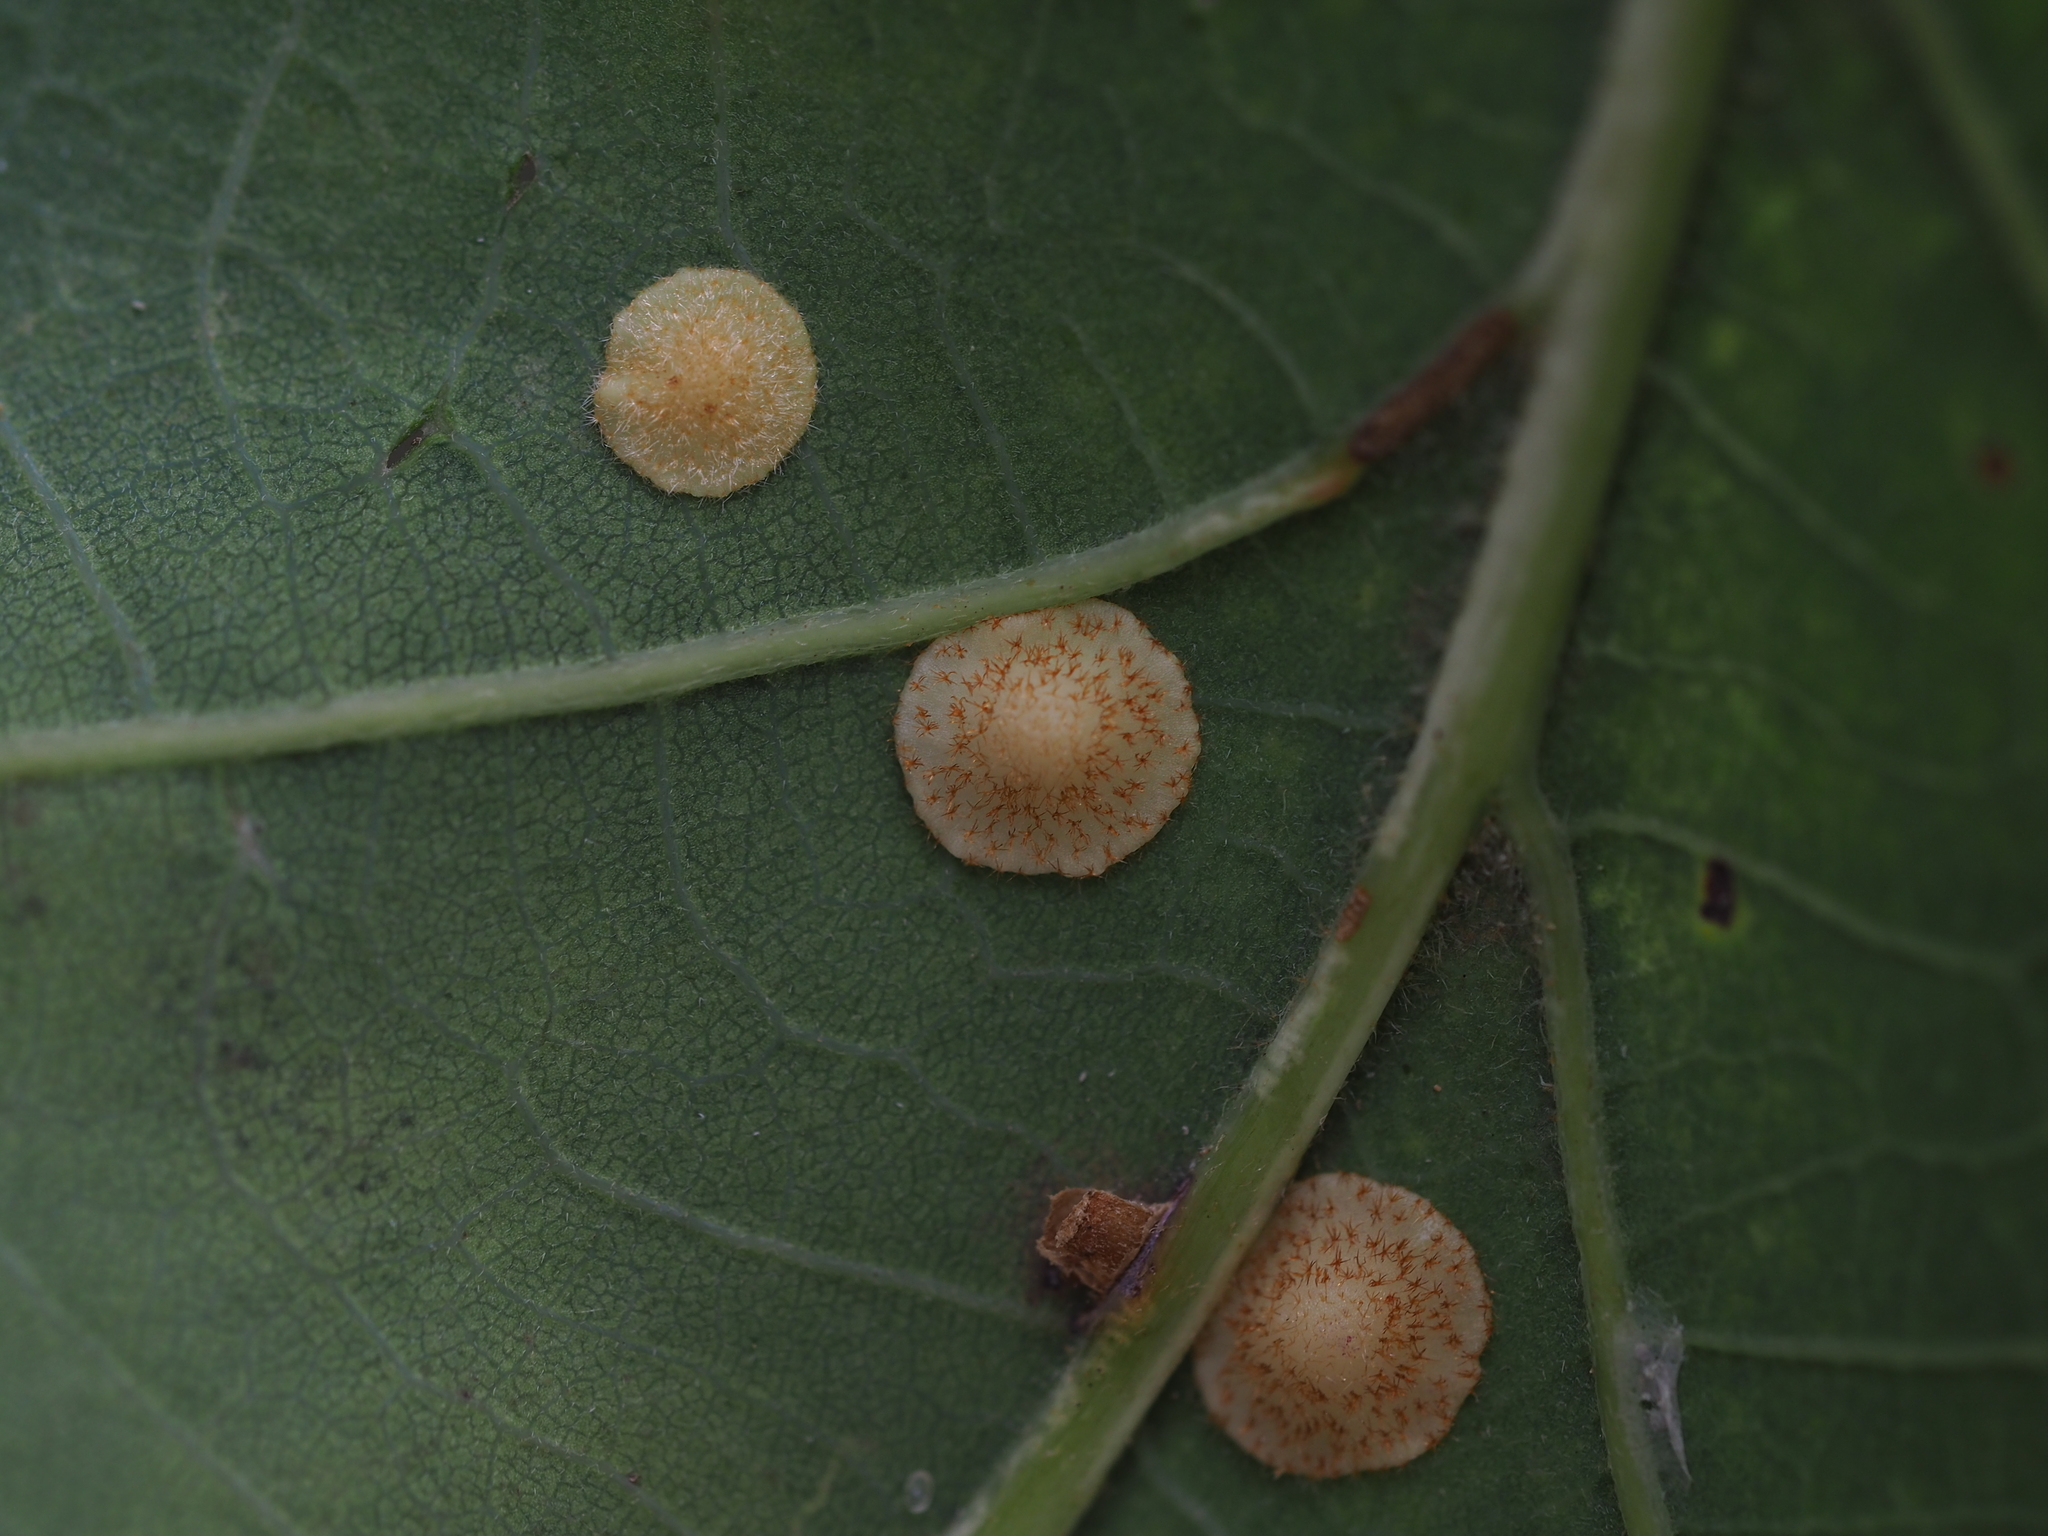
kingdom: Animalia
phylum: Arthropoda
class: Insecta
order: Hymenoptera
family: Cynipidae
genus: Neuroterus
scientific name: Neuroterus quercusbaccarum
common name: Common spangle gall
